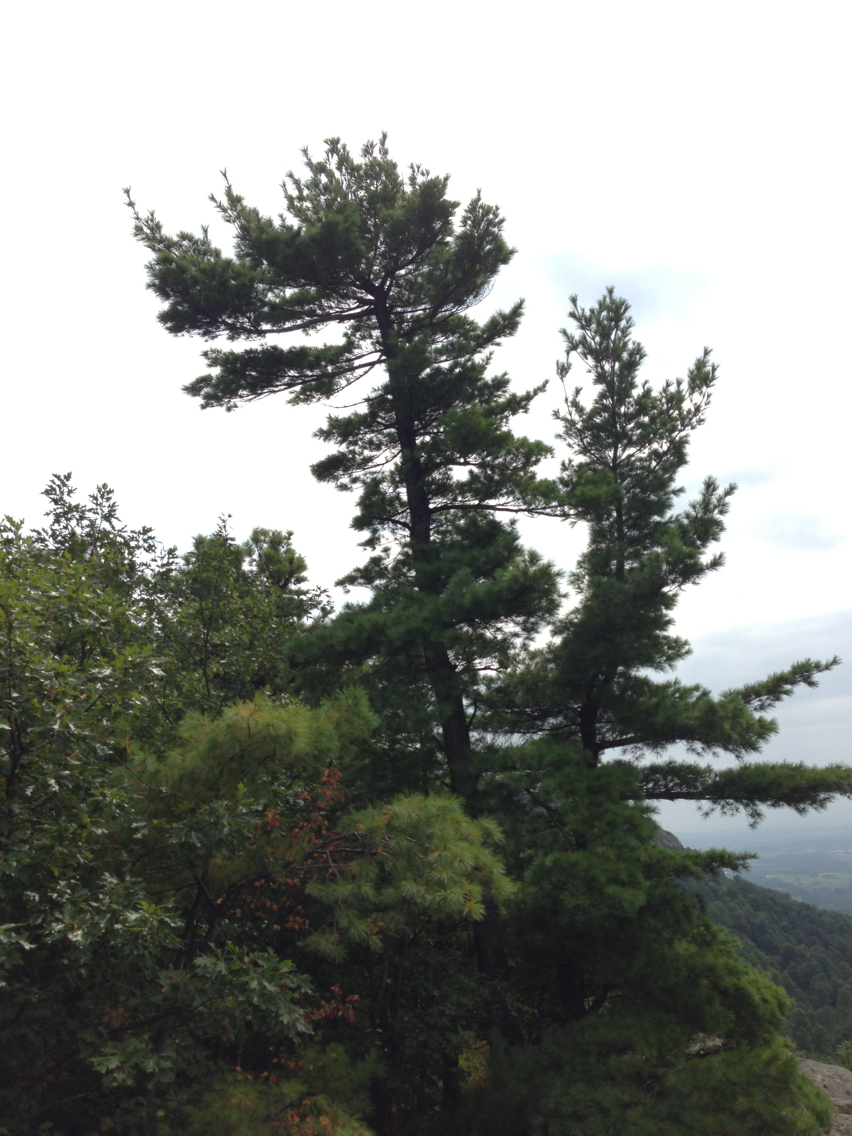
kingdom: Plantae
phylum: Tracheophyta
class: Pinopsida
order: Pinales
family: Pinaceae
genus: Pinus
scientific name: Pinus strobus
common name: Weymouth pine
